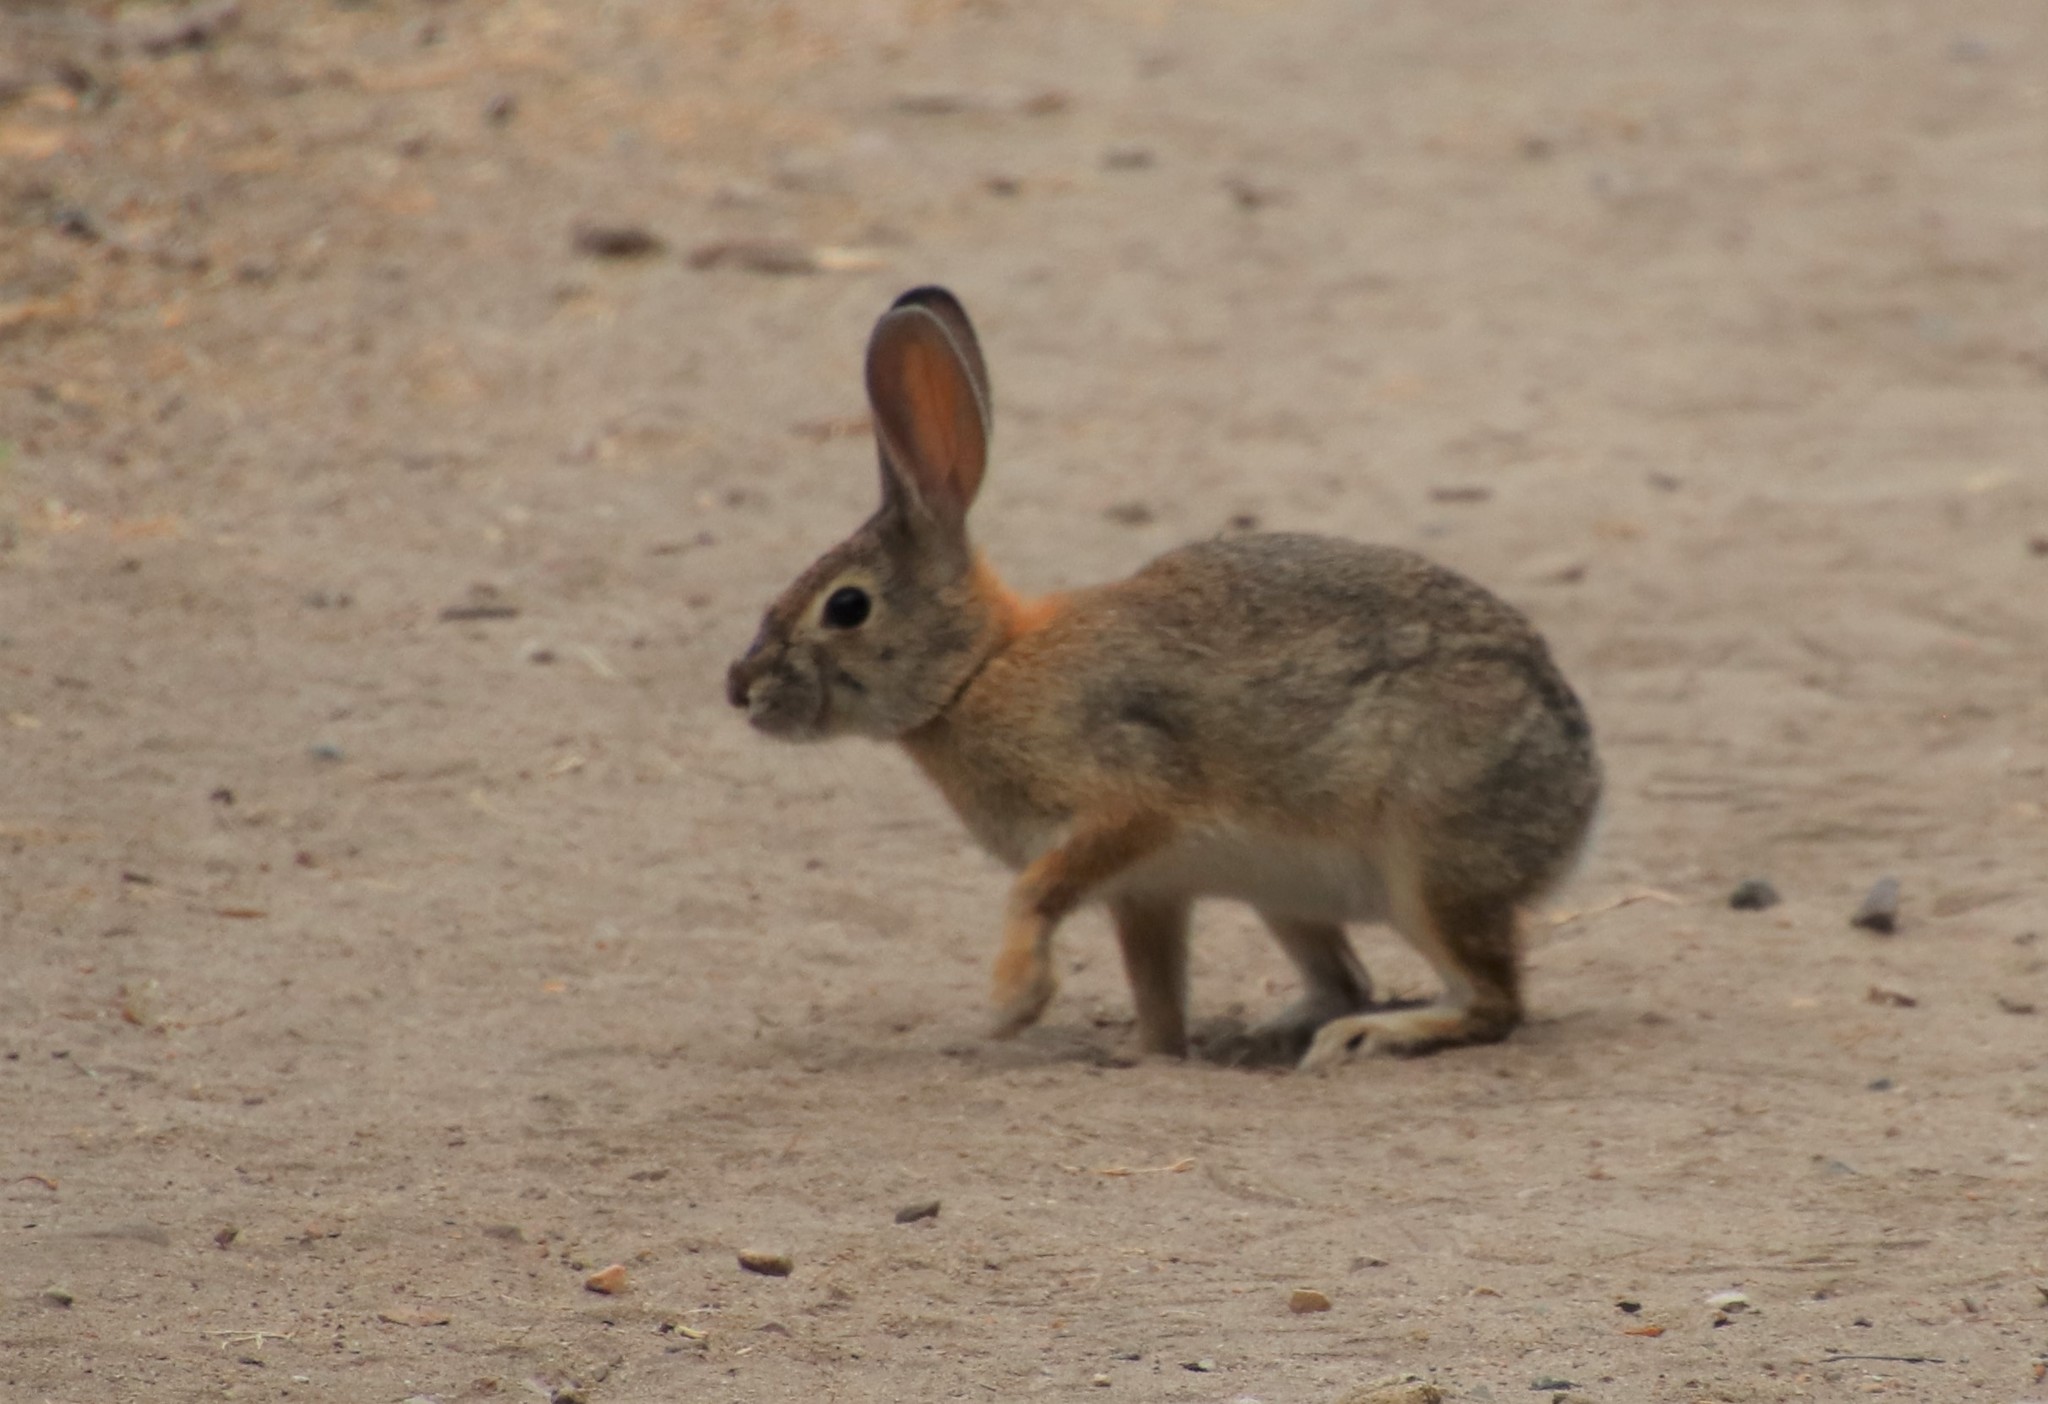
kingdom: Animalia
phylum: Chordata
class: Mammalia
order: Lagomorpha
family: Leporidae
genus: Sylvilagus
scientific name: Sylvilagus audubonii
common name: Desert cottontail
